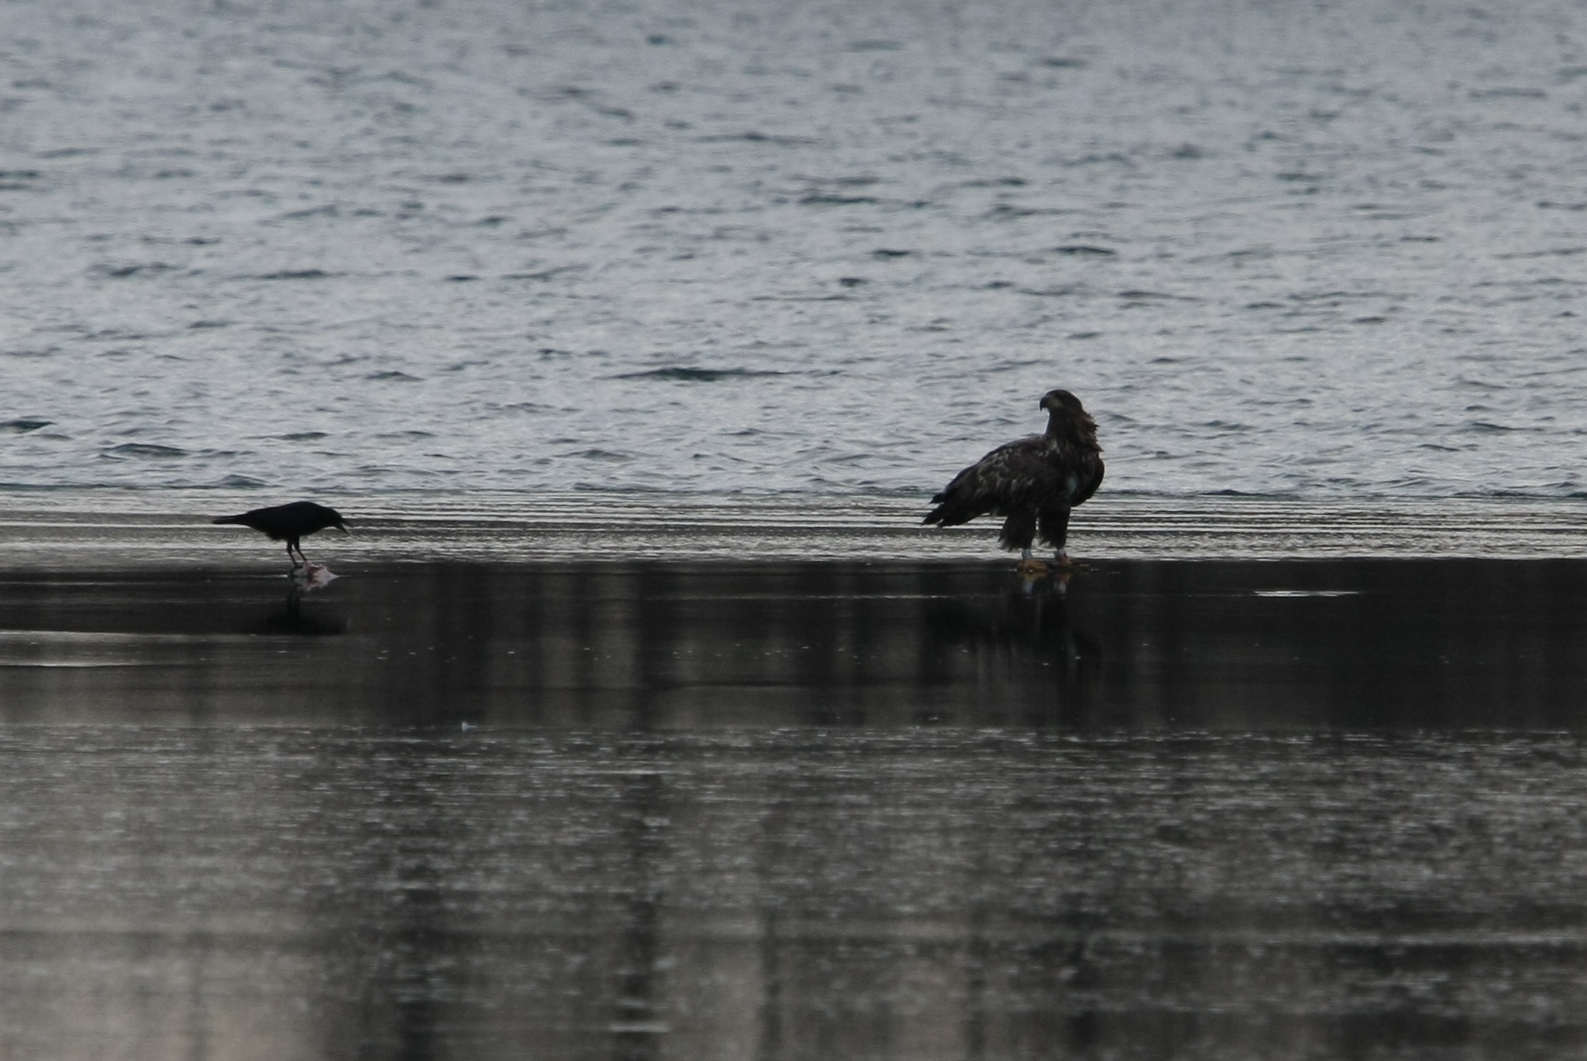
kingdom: Animalia
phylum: Chordata
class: Aves
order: Accipitriformes
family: Accipitridae
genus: Haliaeetus
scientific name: Haliaeetus albicilla
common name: White-tailed eagle
